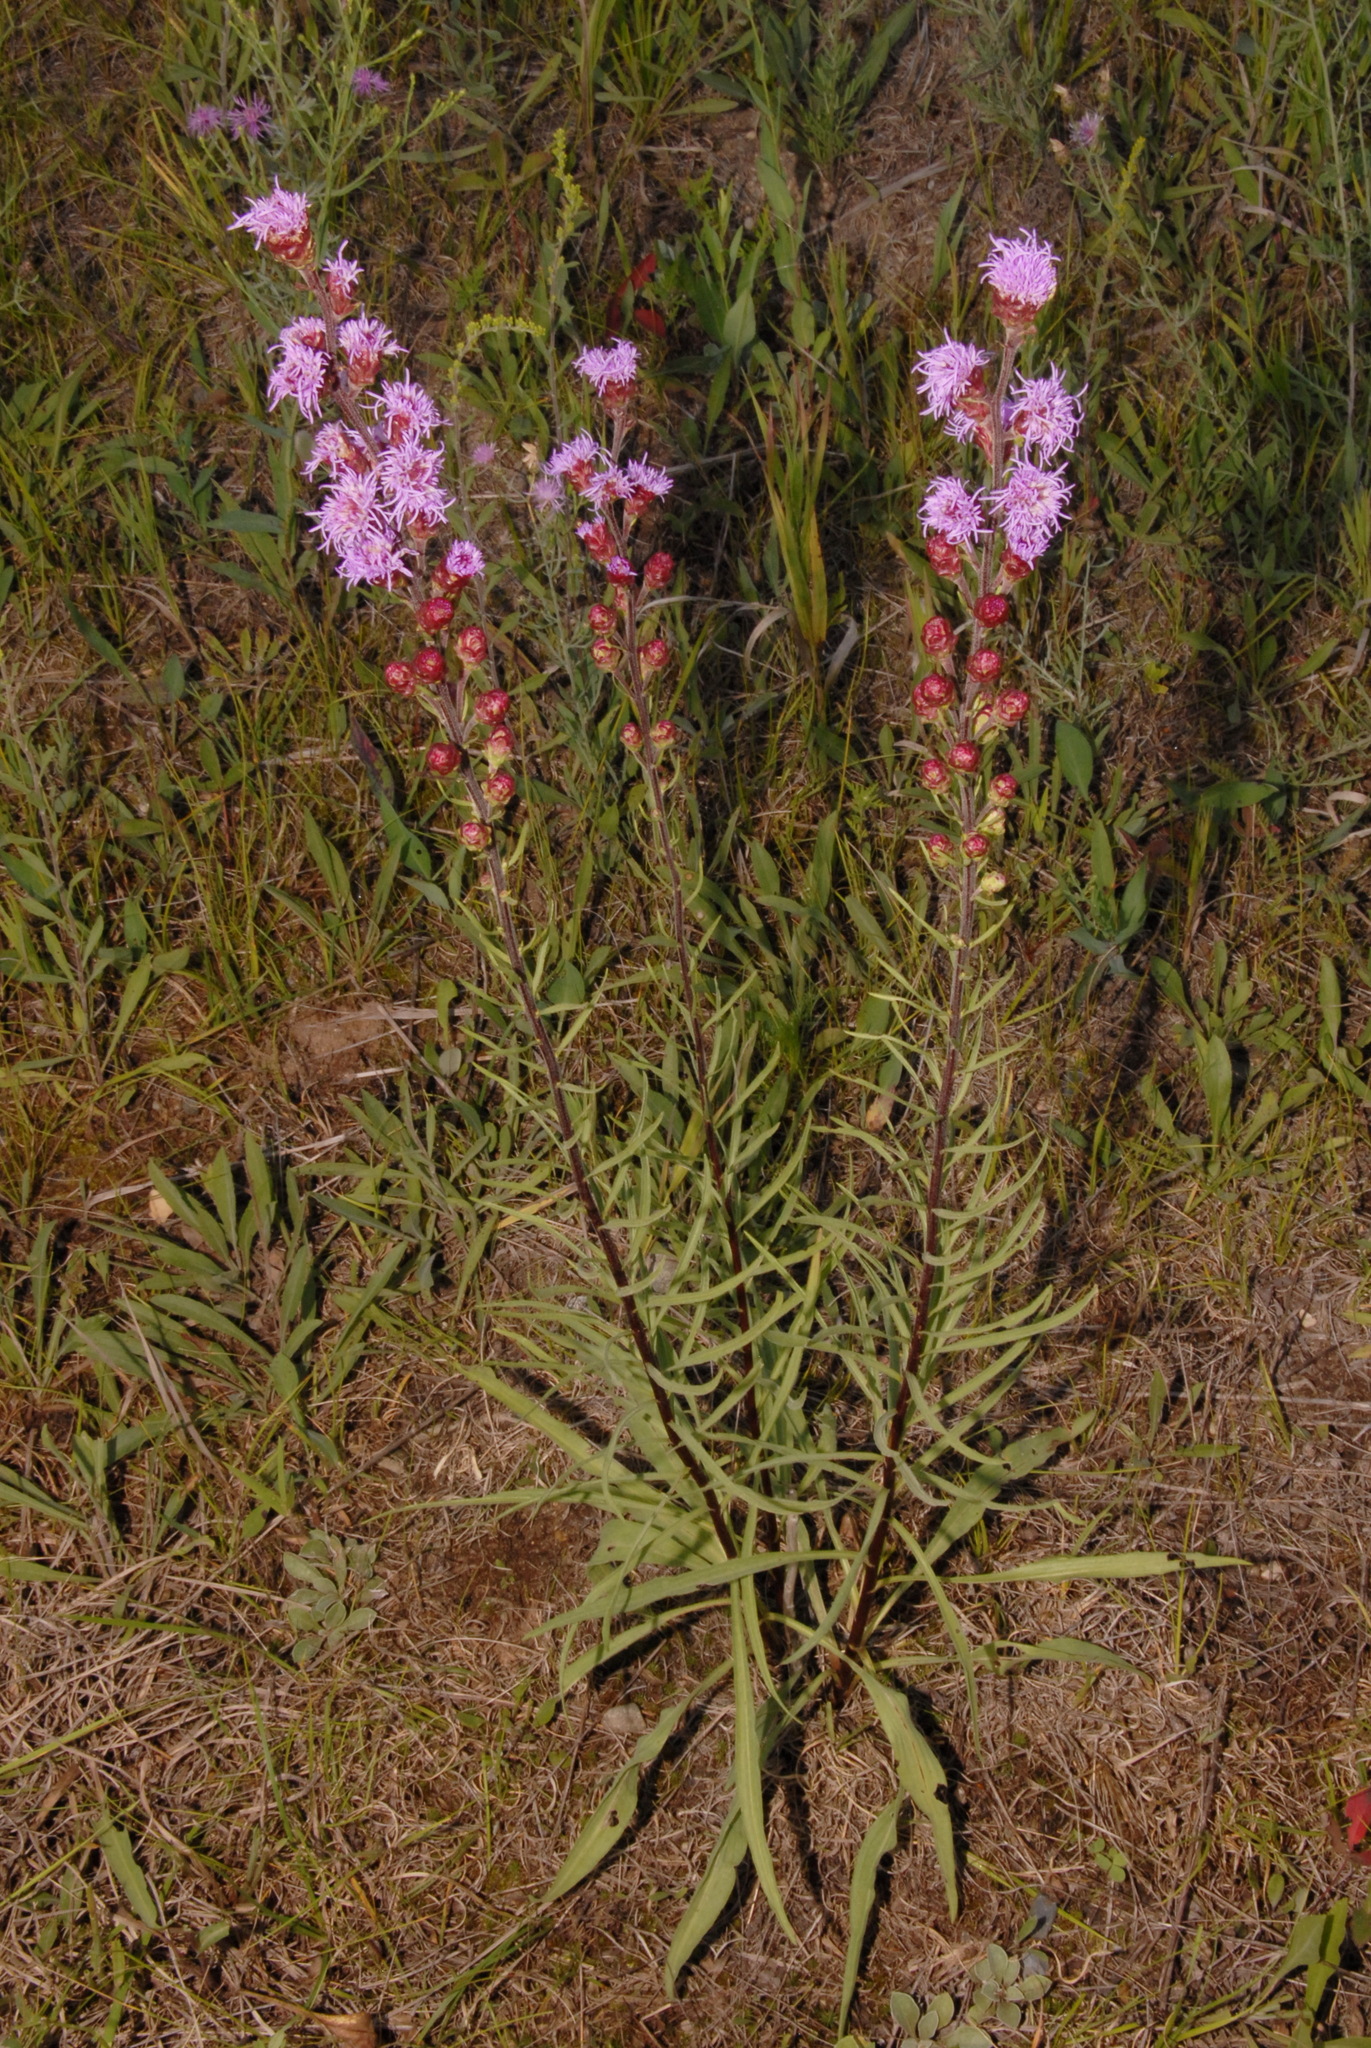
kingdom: Plantae
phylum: Tracheophyta
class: Magnoliopsida
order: Asterales
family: Asteraceae
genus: Liatris
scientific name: Liatris ligulistylis
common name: Northern plains gayfeather
